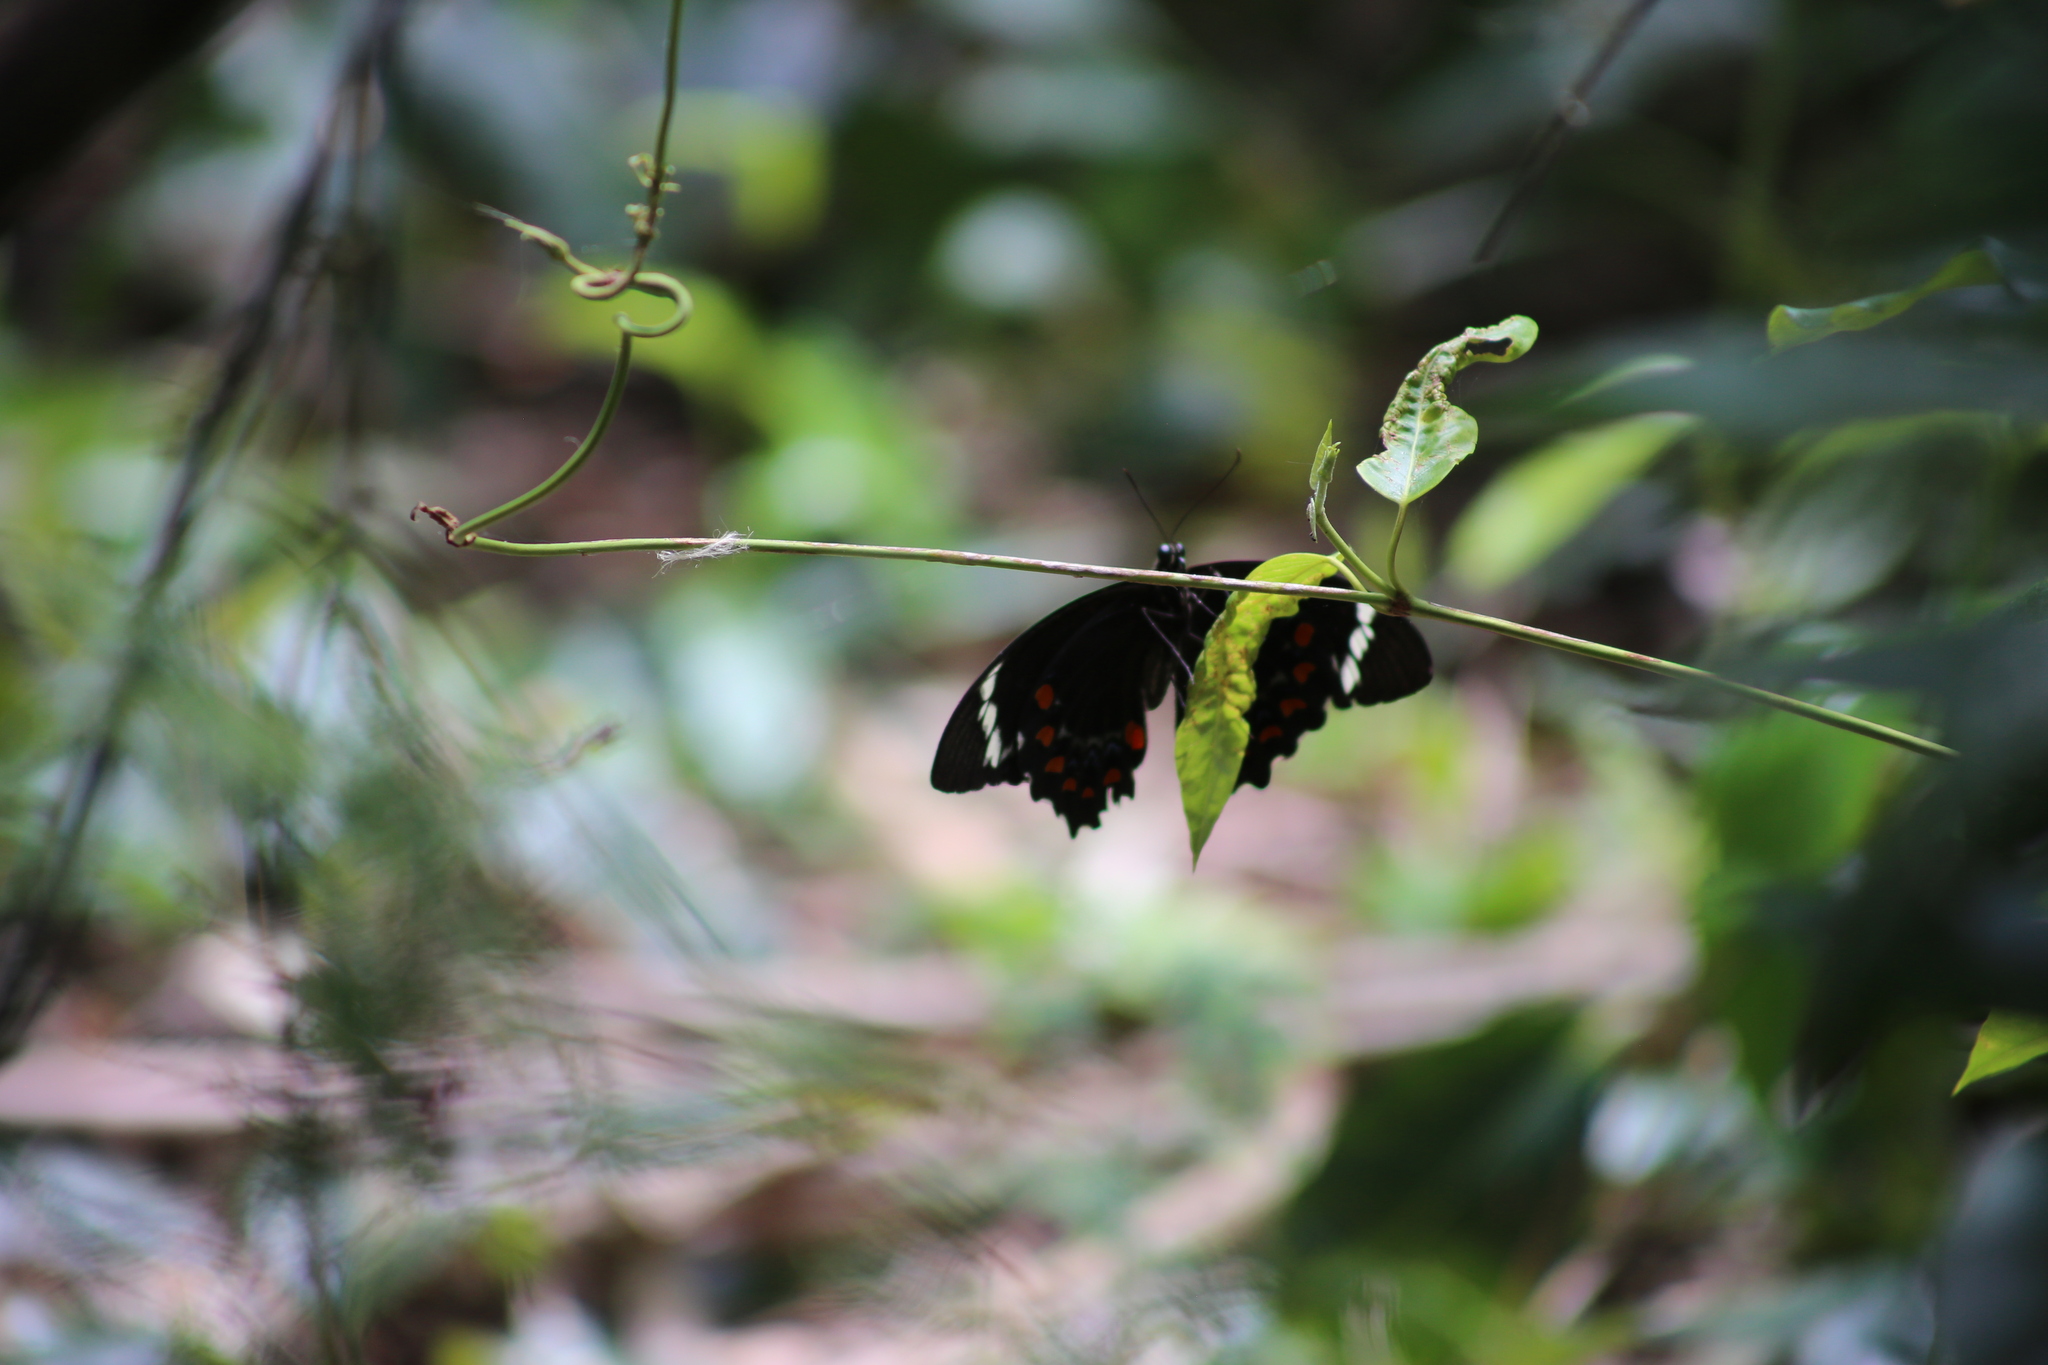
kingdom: Animalia
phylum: Arthropoda
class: Insecta
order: Lepidoptera
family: Papilionidae
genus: Papilio
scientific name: Papilio aegeus
